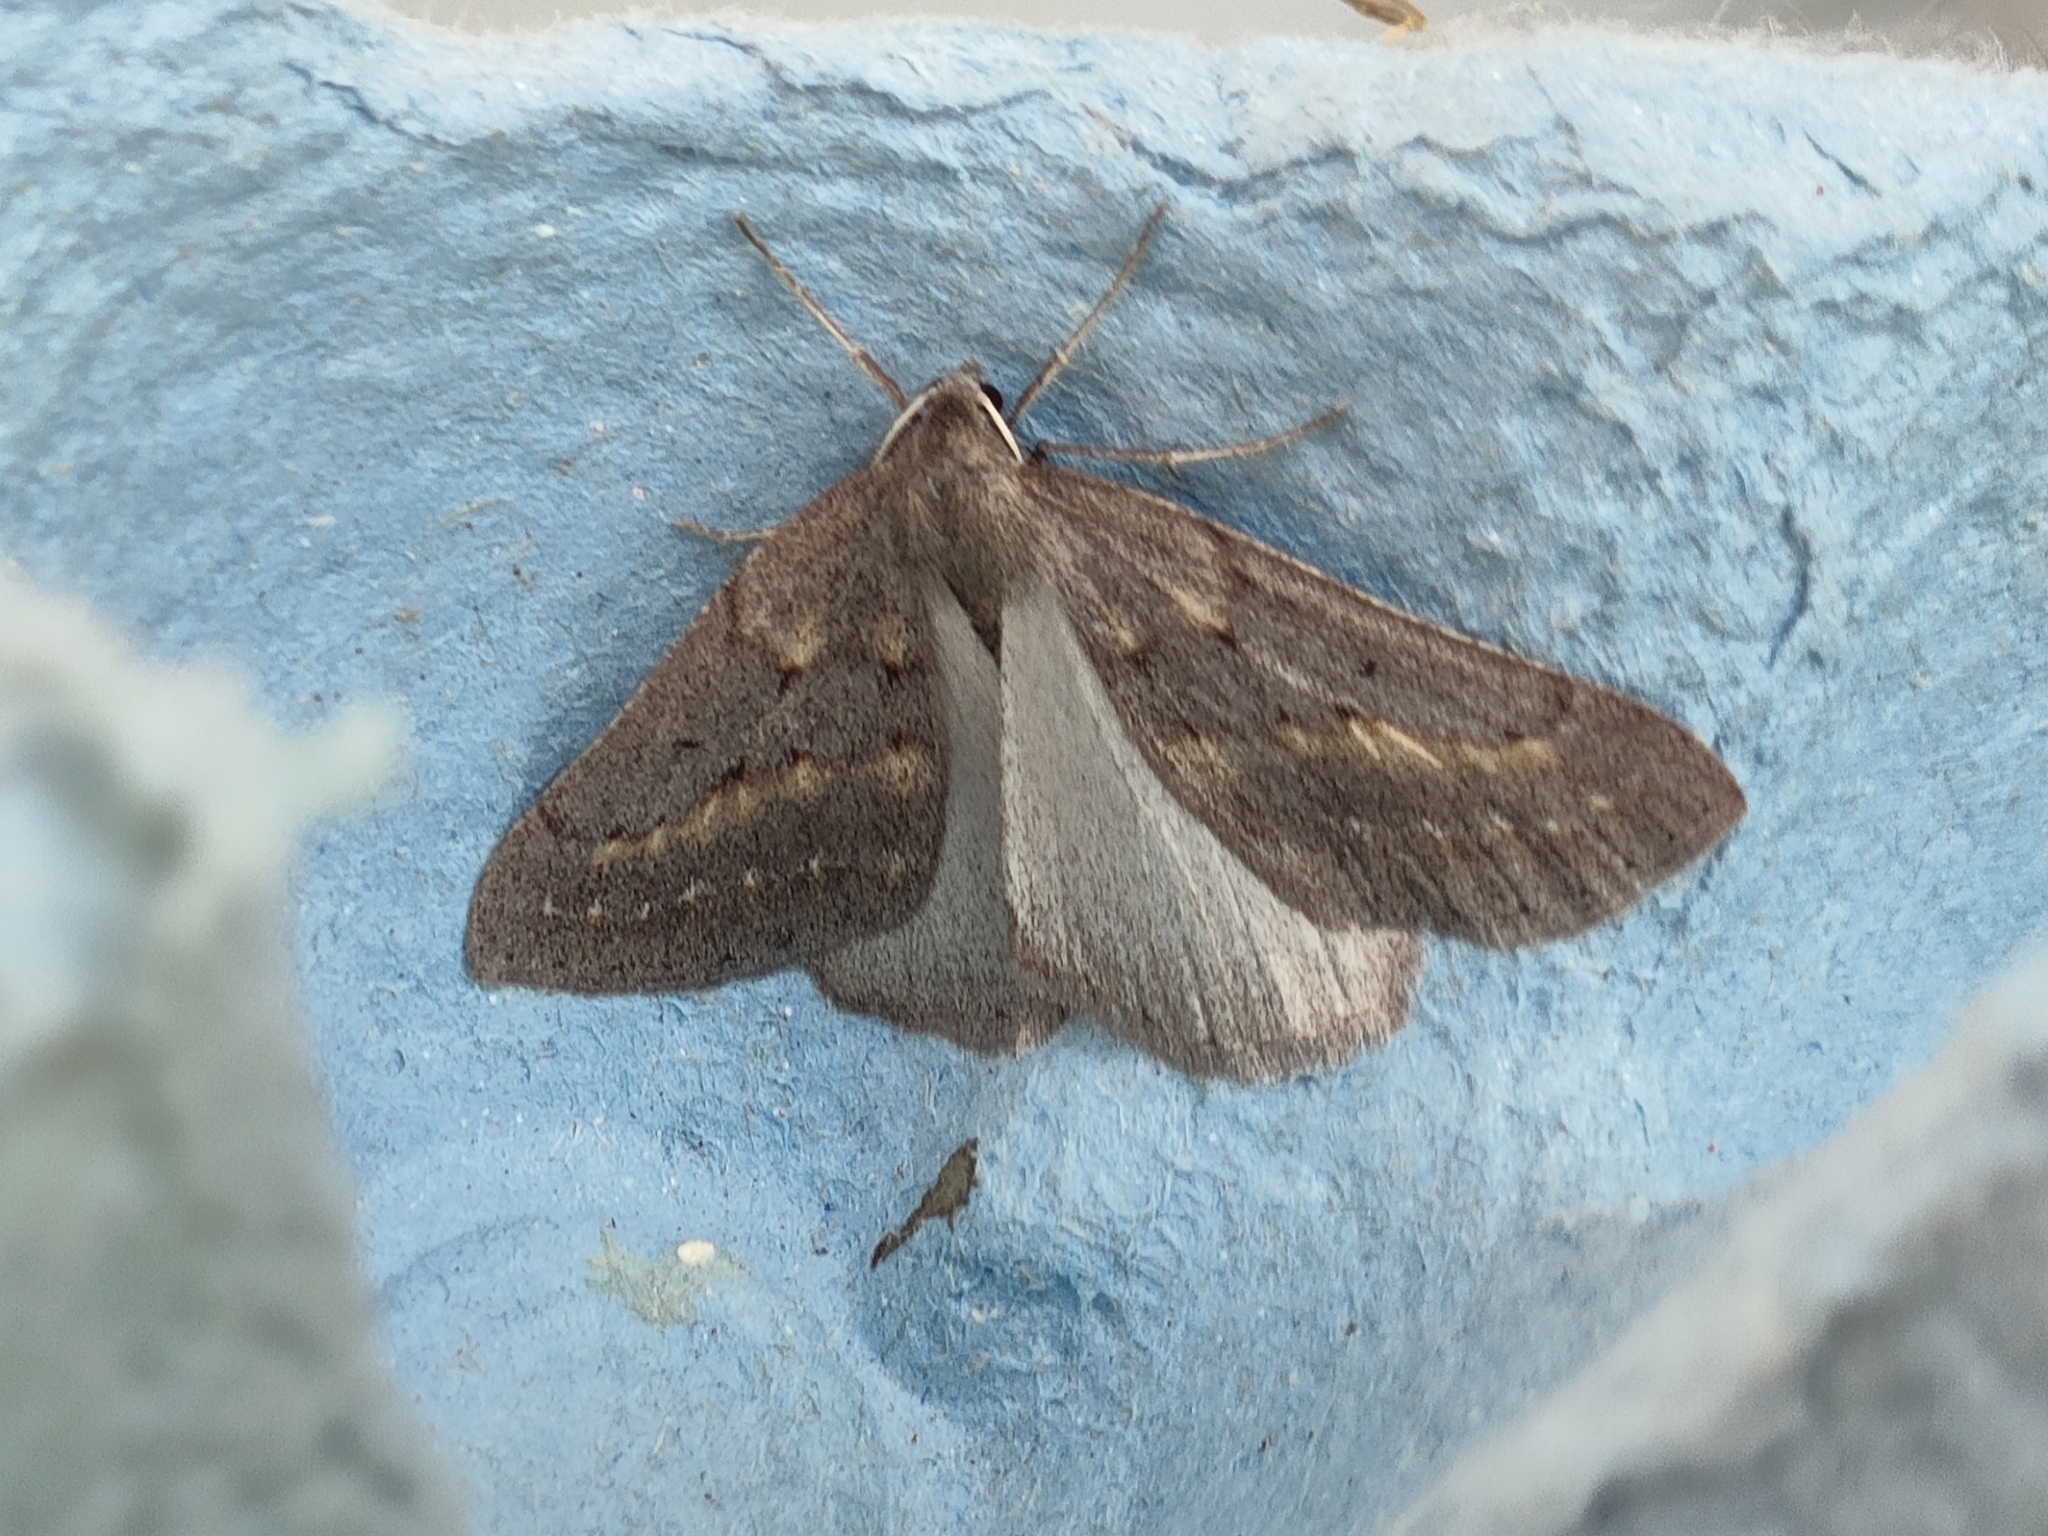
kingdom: Animalia
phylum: Arthropoda
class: Insecta
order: Lepidoptera
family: Geometridae
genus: Chemerina
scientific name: Chemerina caliginearia
